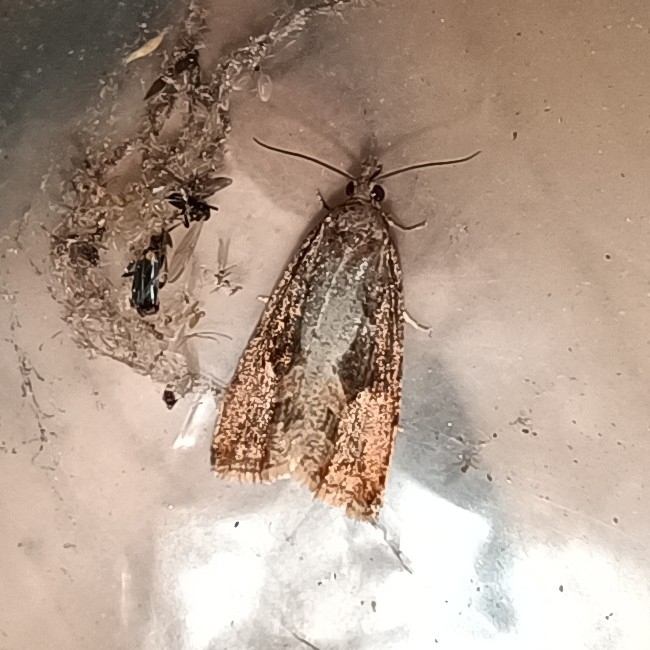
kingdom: Animalia
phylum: Arthropoda
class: Insecta
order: Lepidoptera
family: Tortricidae
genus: Endothenia
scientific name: Endothenia quadrimaculana
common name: Tortricid moth
